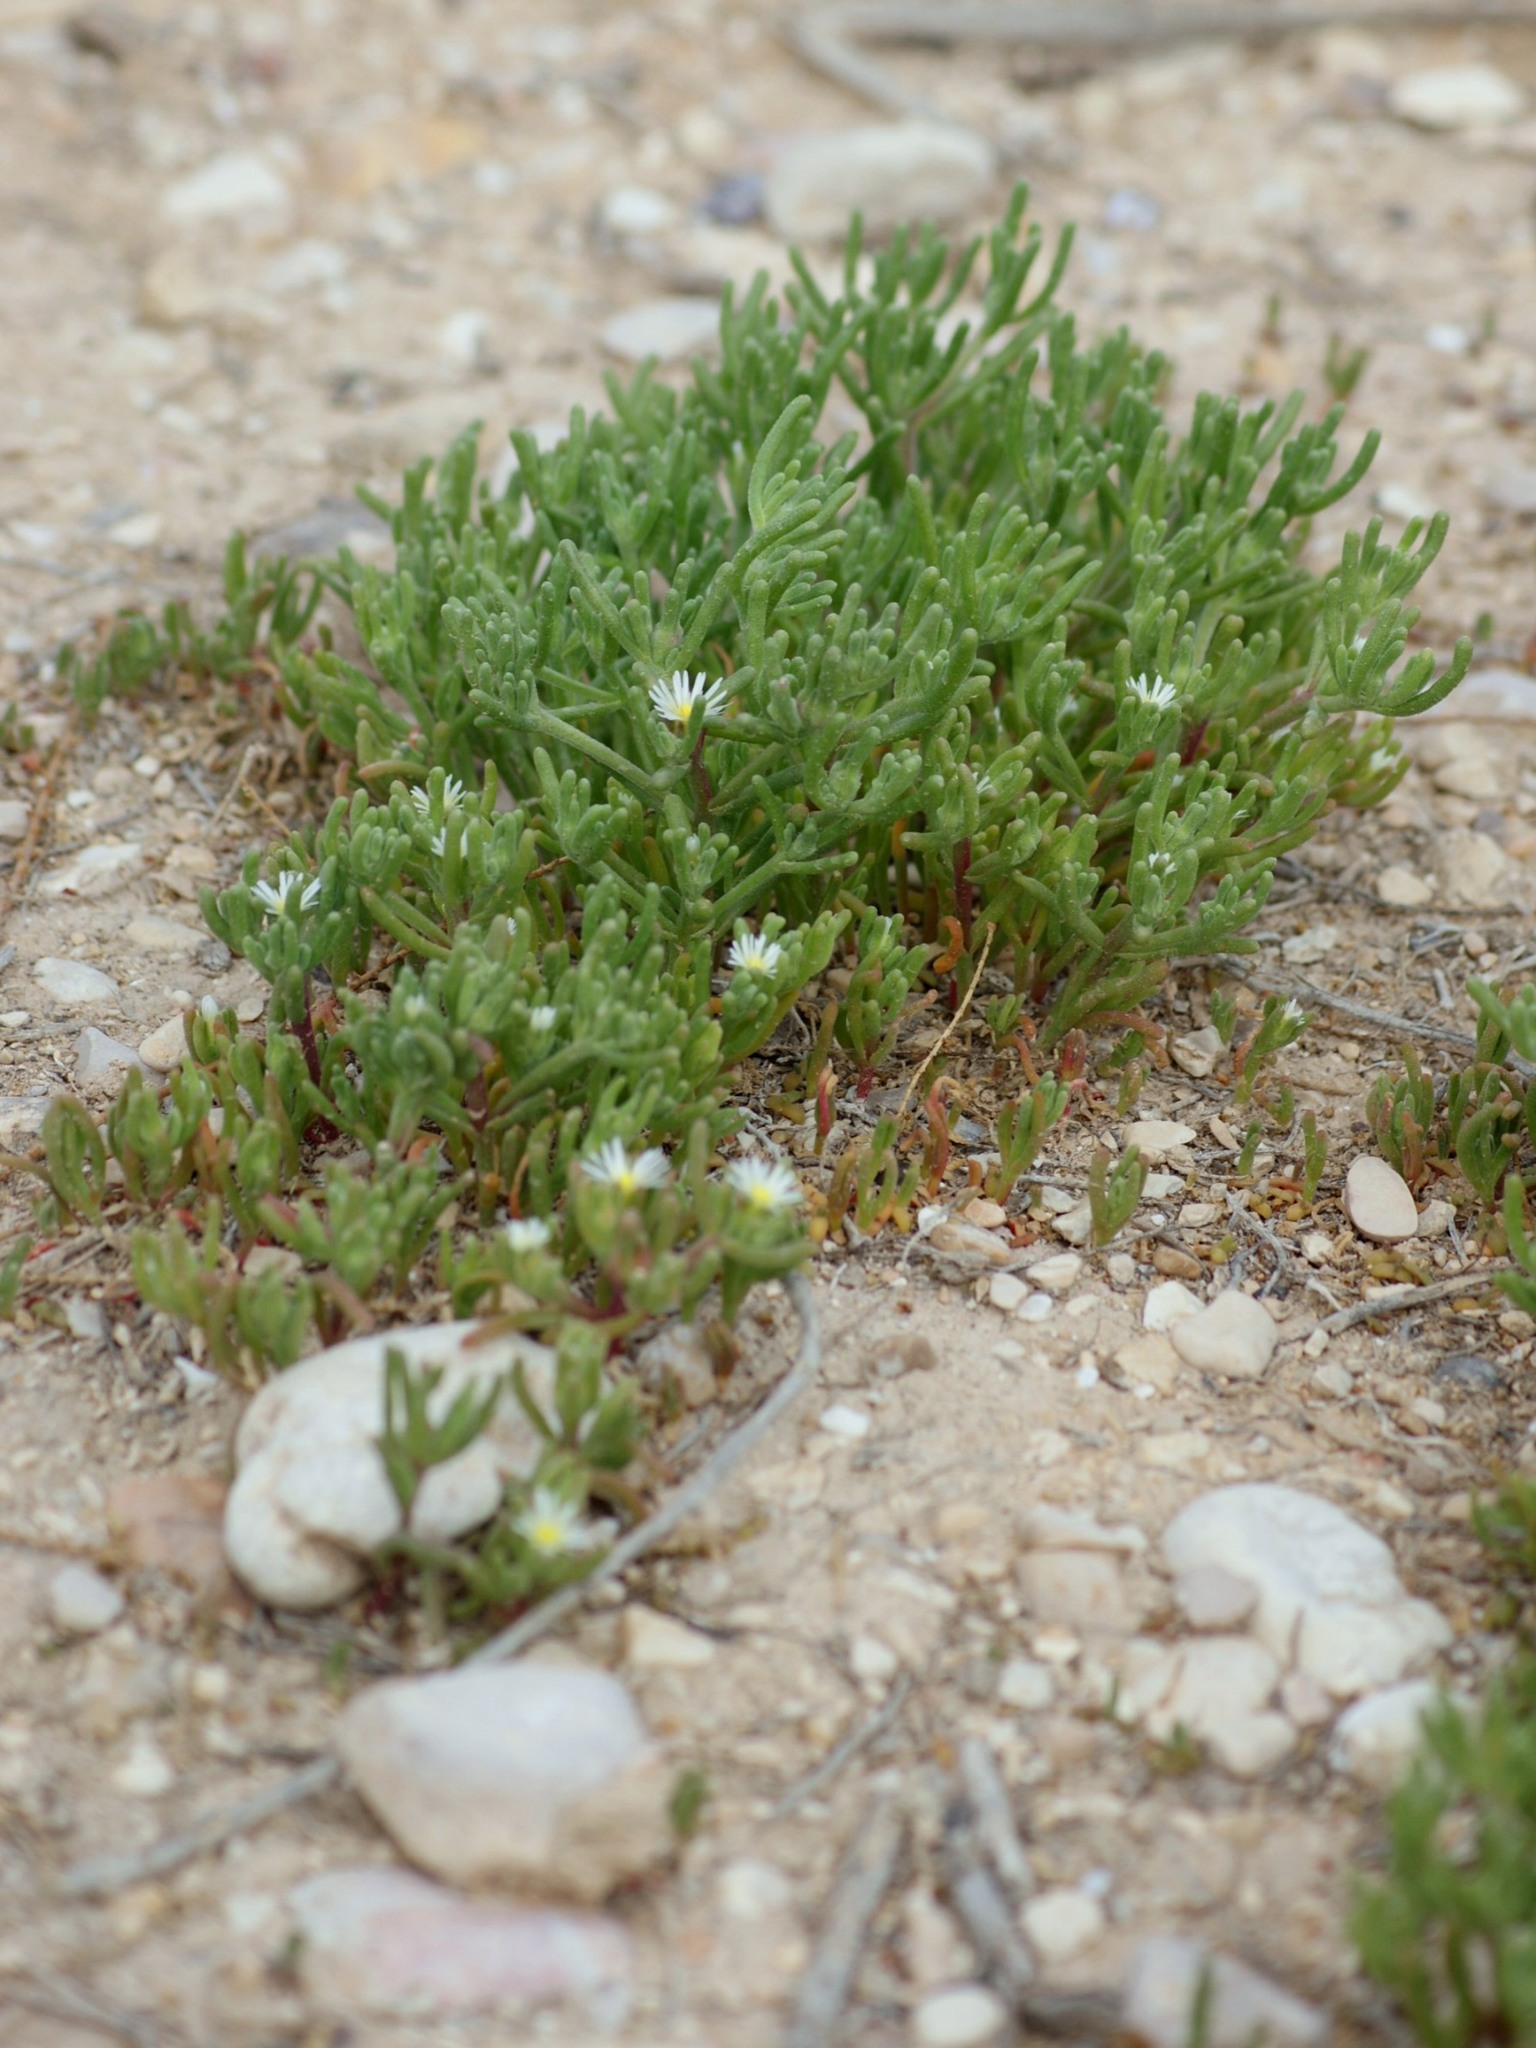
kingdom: Plantae
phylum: Tracheophyta
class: Magnoliopsida
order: Caryophyllales
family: Aizoaceae
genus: Mesembryanthemum
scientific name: Mesembryanthemum nodiflorum
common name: Slenderleaf iceplant
